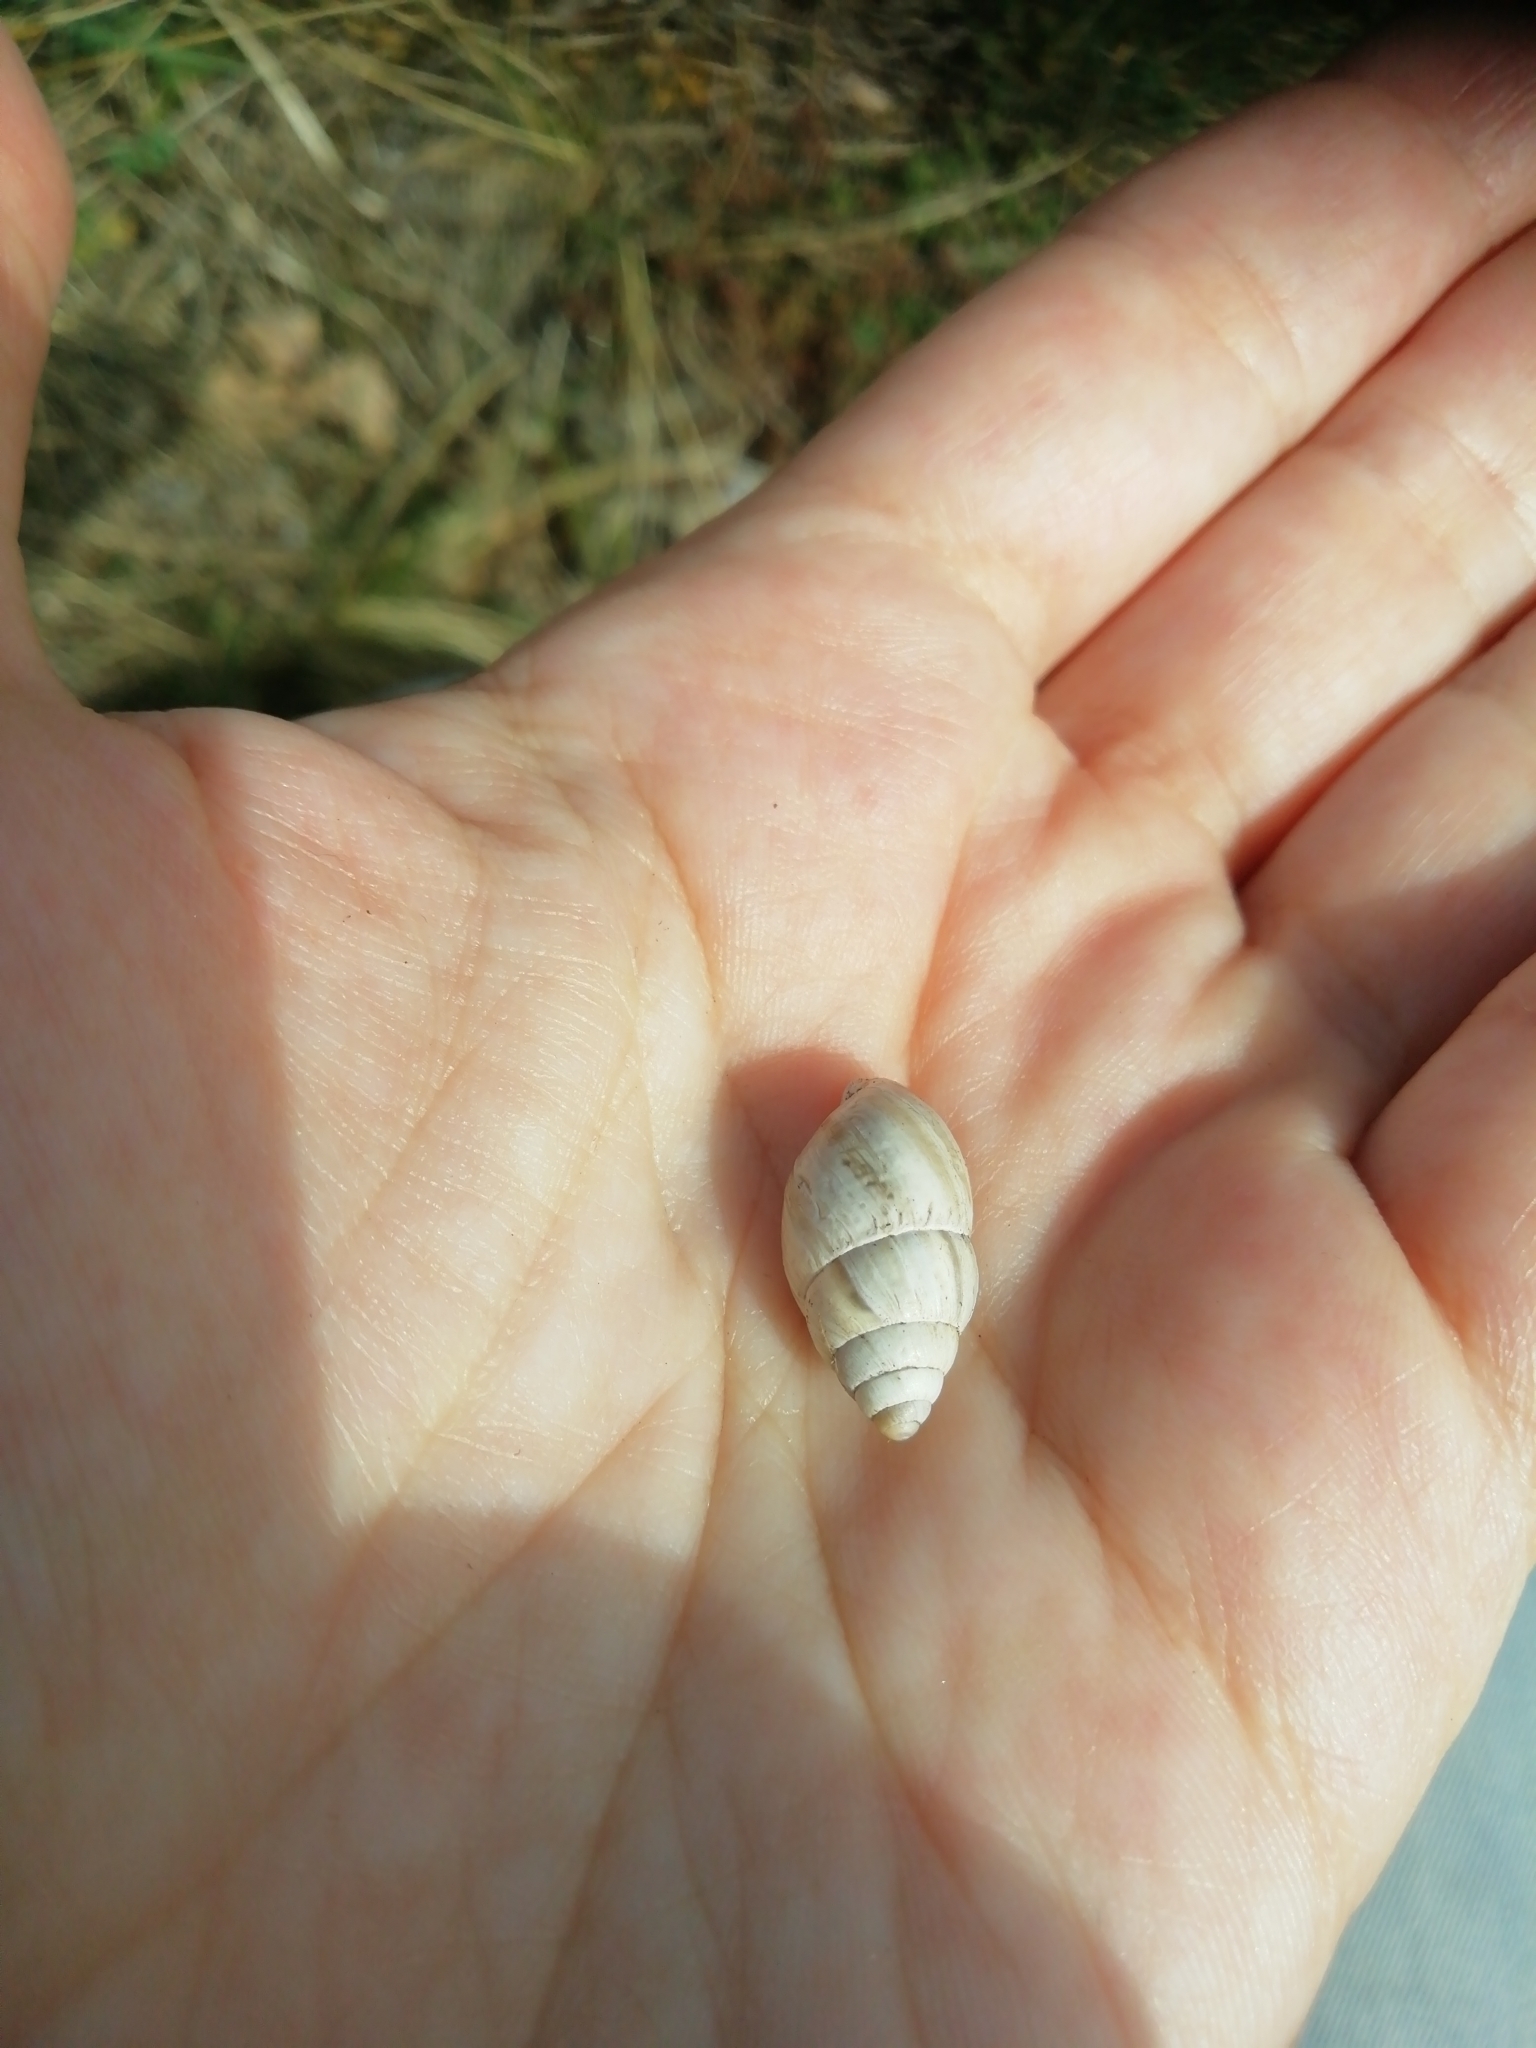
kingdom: Animalia
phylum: Mollusca
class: Gastropoda
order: Stylommatophora
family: Enidae
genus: Zebrina
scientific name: Zebrina detrita
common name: Large bulin
